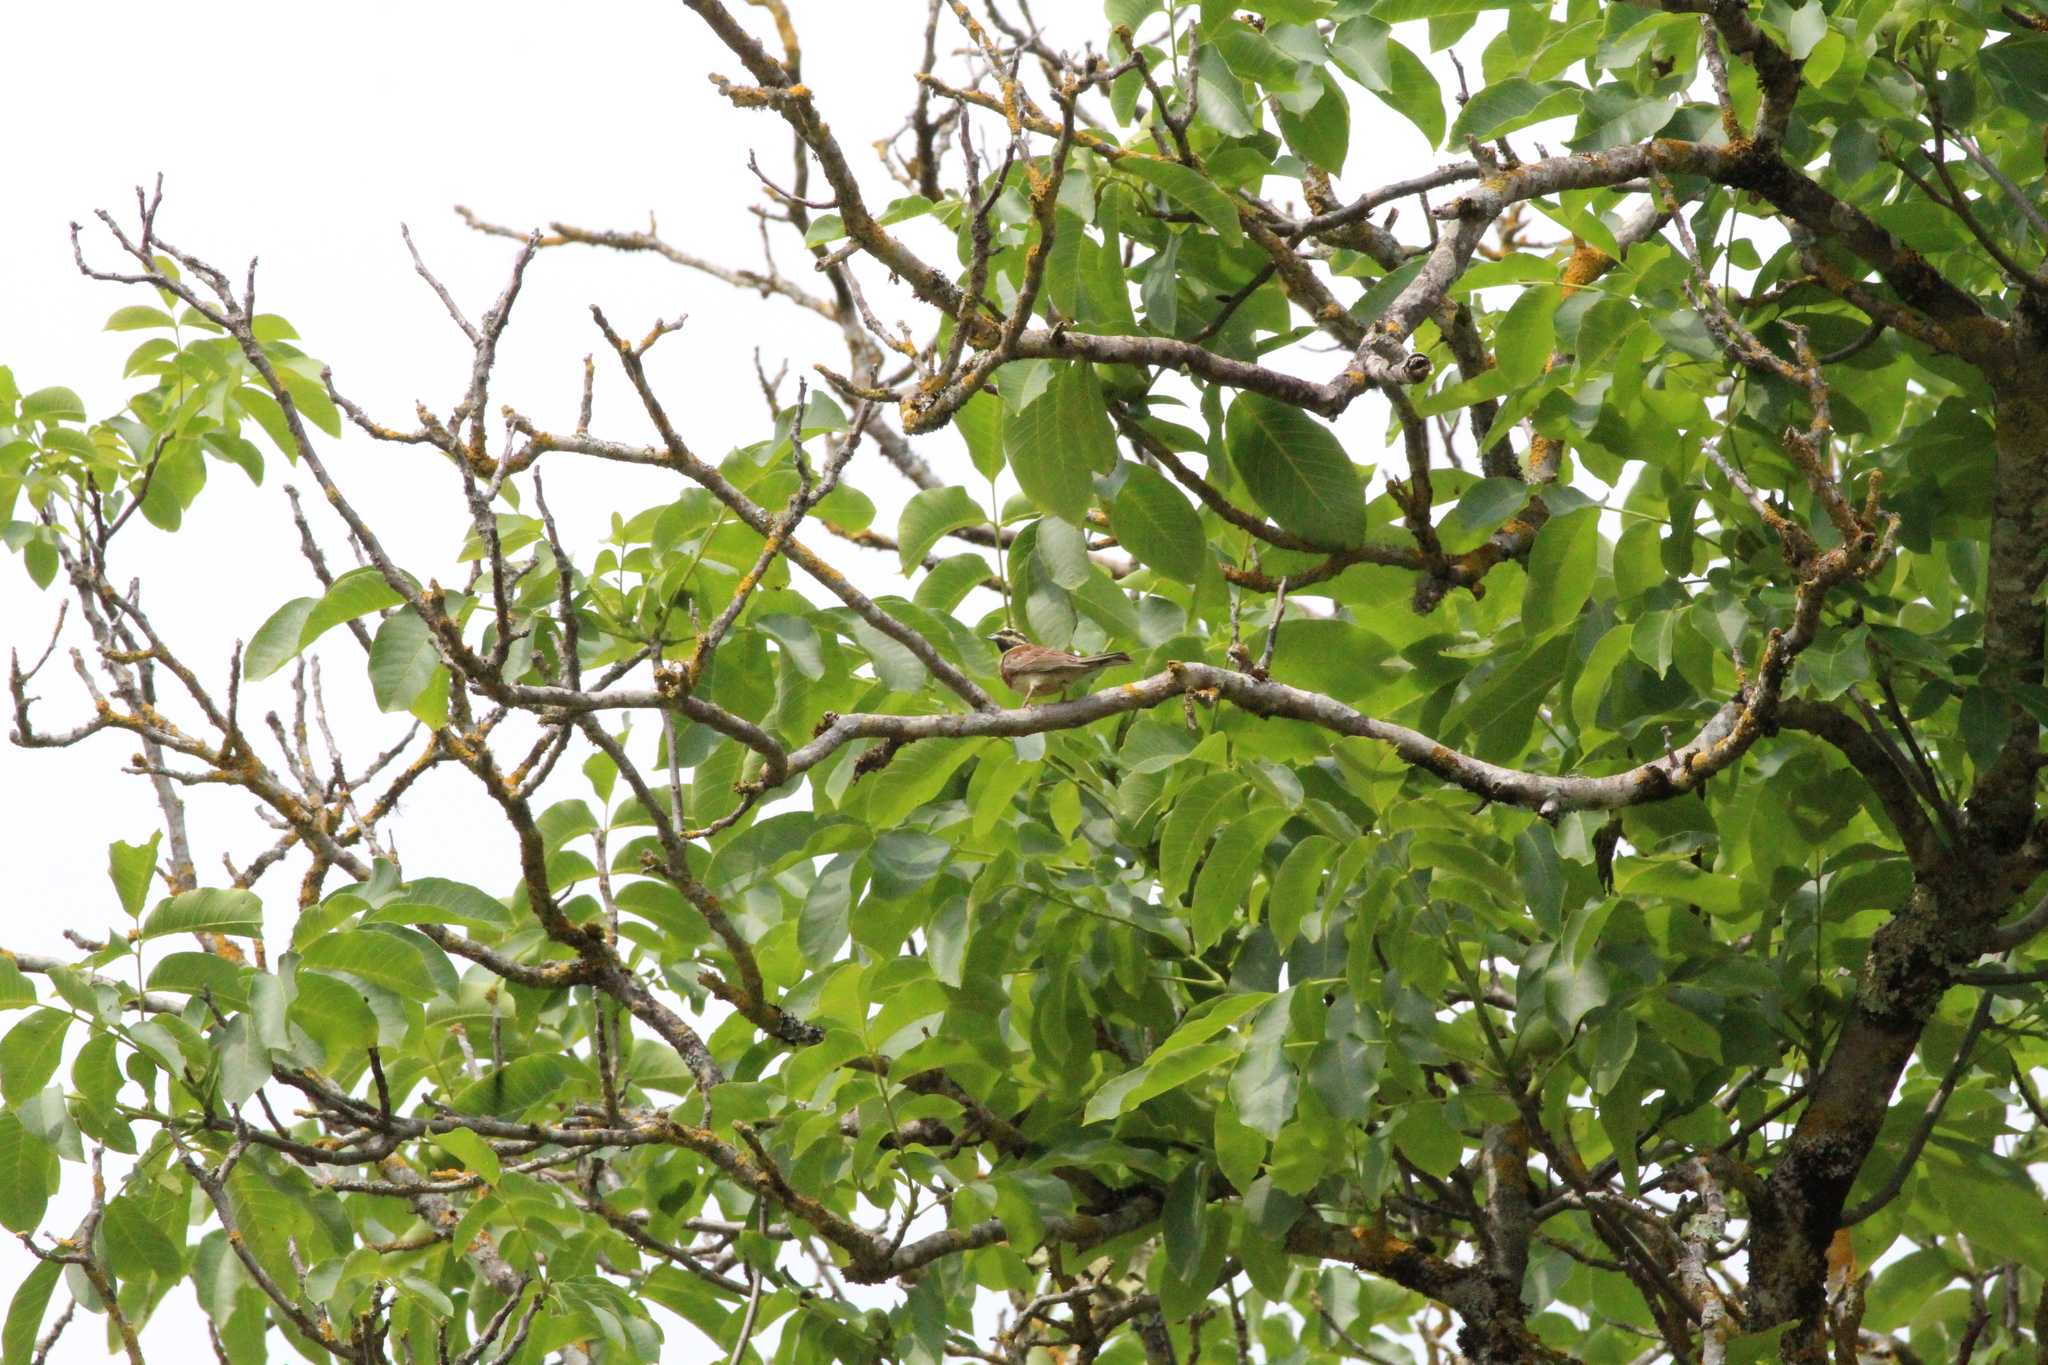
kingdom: Animalia
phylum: Chordata
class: Aves
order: Passeriformes
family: Emberizidae
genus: Emberiza
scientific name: Emberiza cirlus
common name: Cirl bunting
